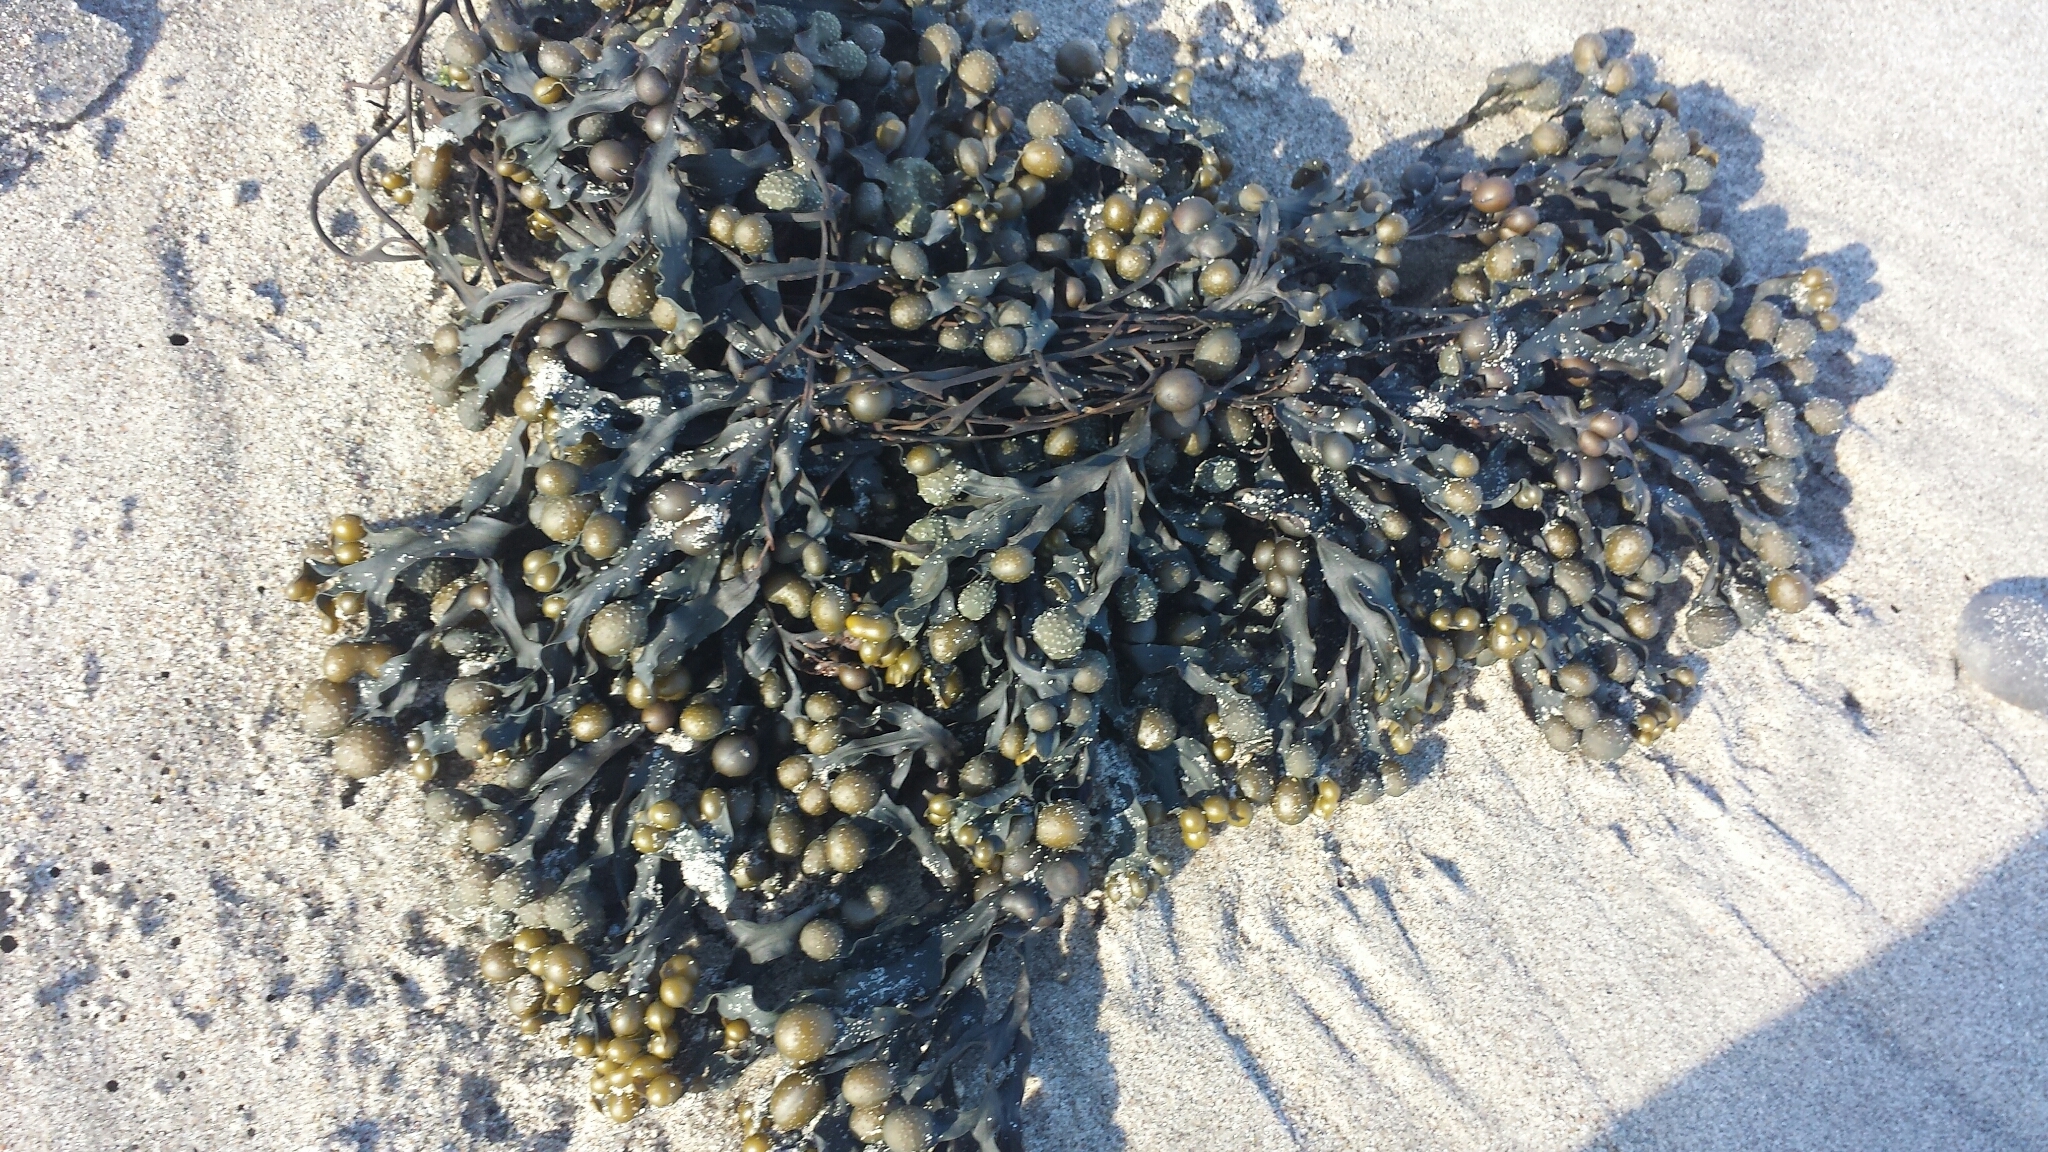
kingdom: Chromista
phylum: Ochrophyta
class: Phaeophyceae
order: Fucales
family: Fucaceae
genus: Fucus
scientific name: Fucus vesiculosus
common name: Bladder wrack
